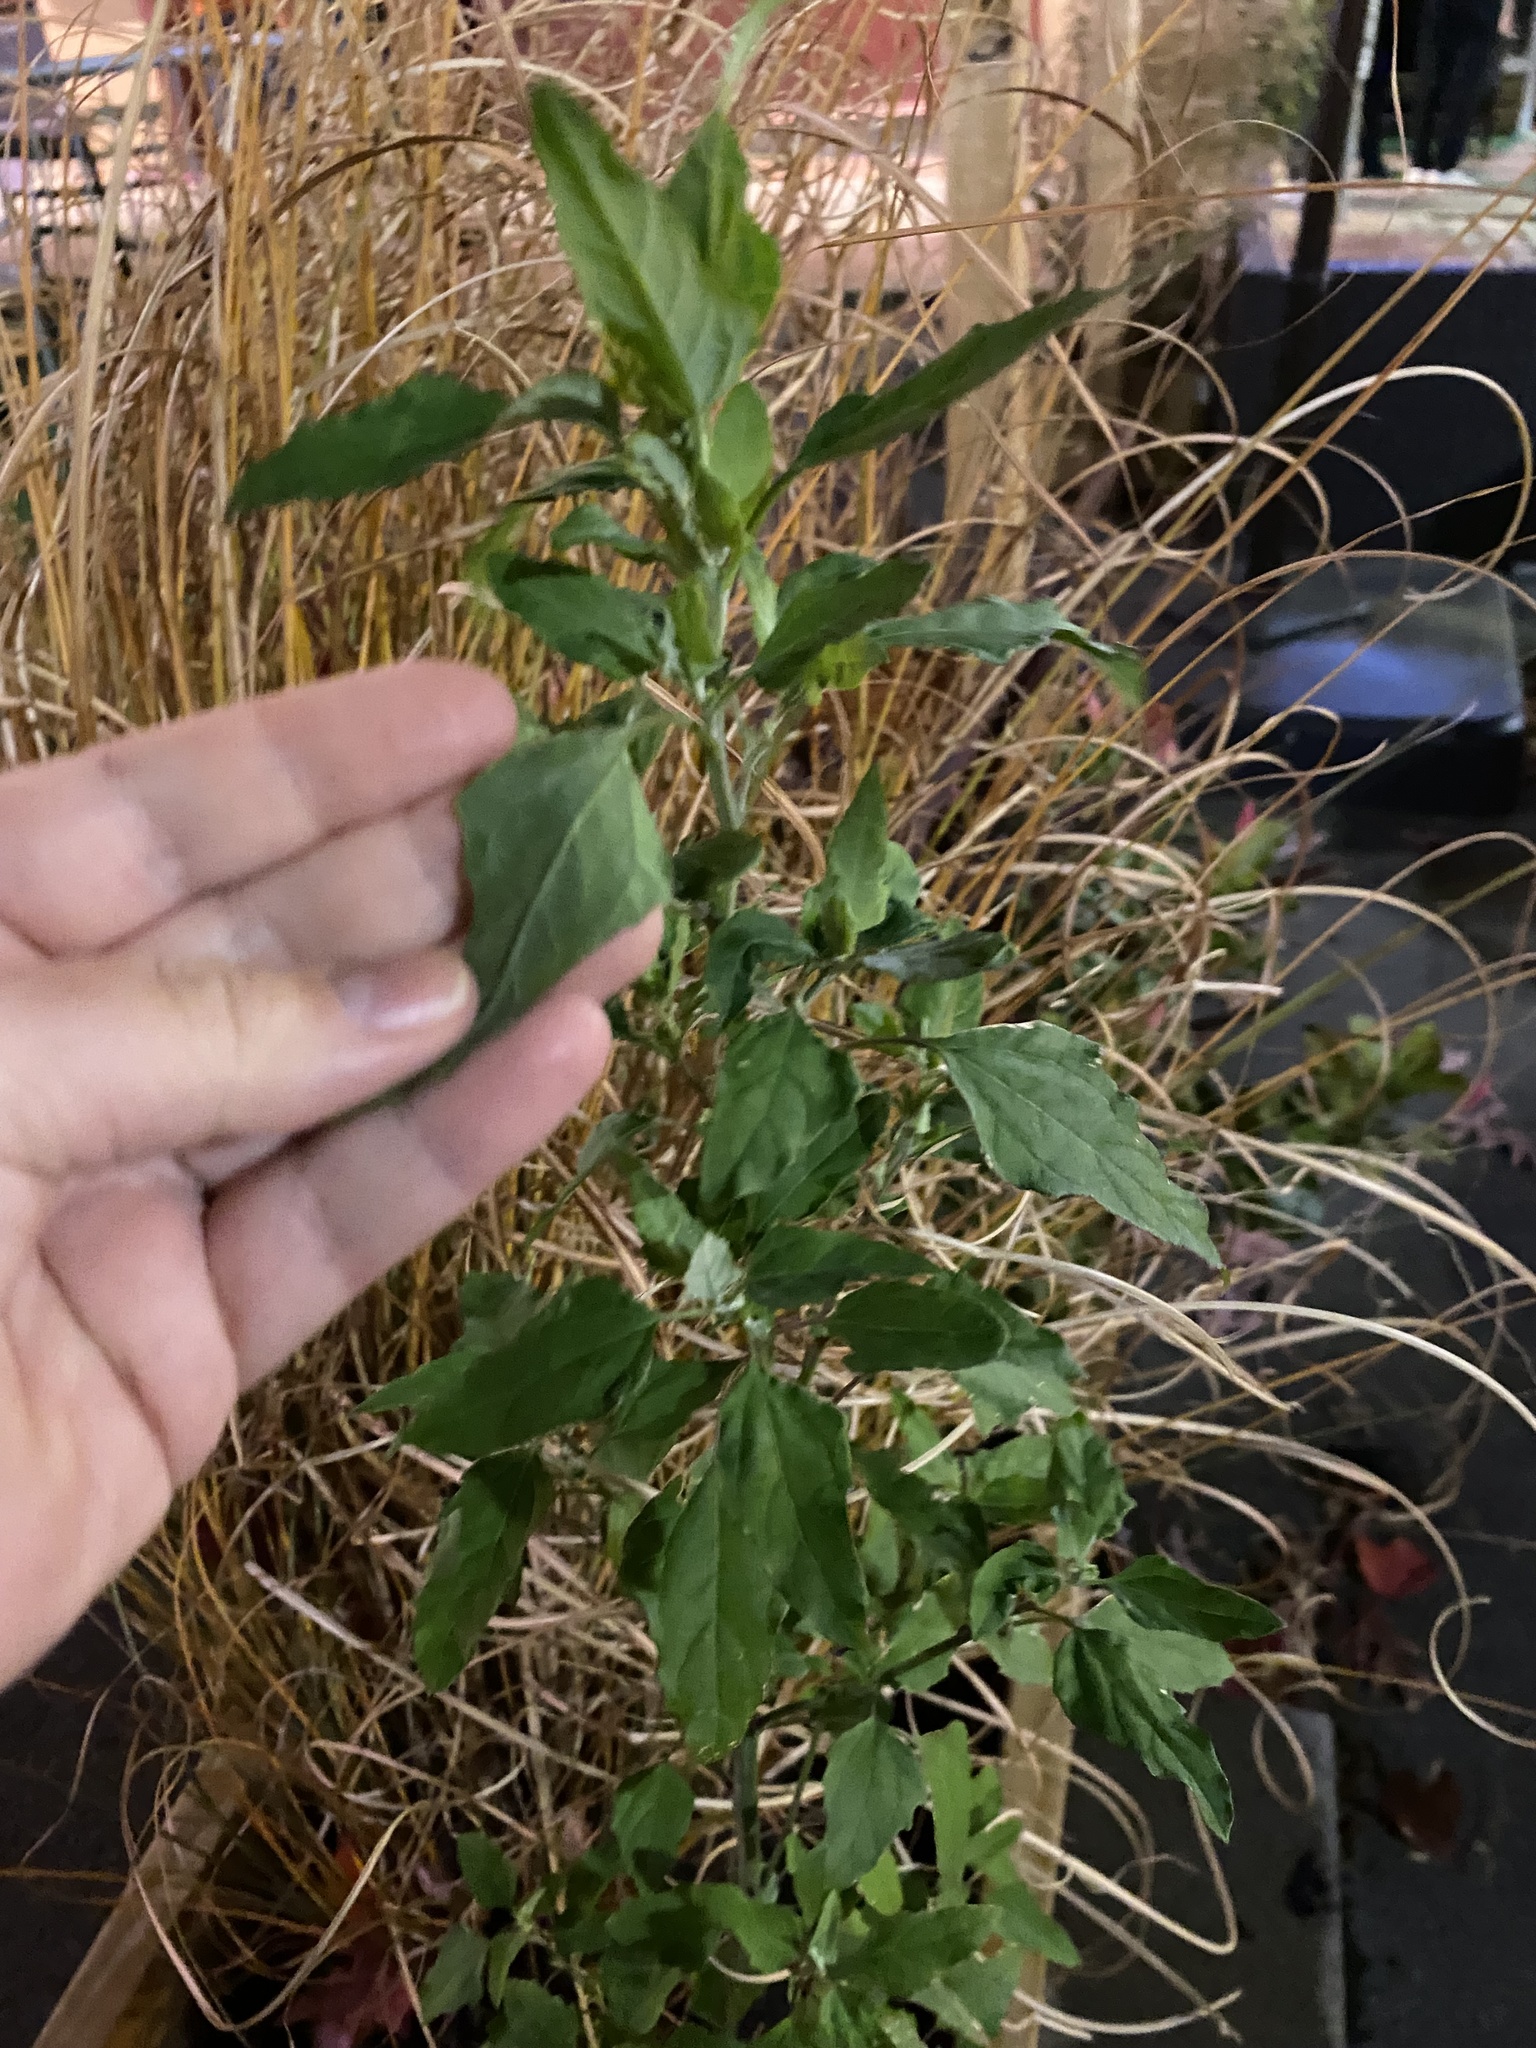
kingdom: Plantae
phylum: Tracheophyta
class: Magnoliopsida
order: Caryophyllales
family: Amaranthaceae
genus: Chenopodium
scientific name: Chenopodium album
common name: Fat-hen
